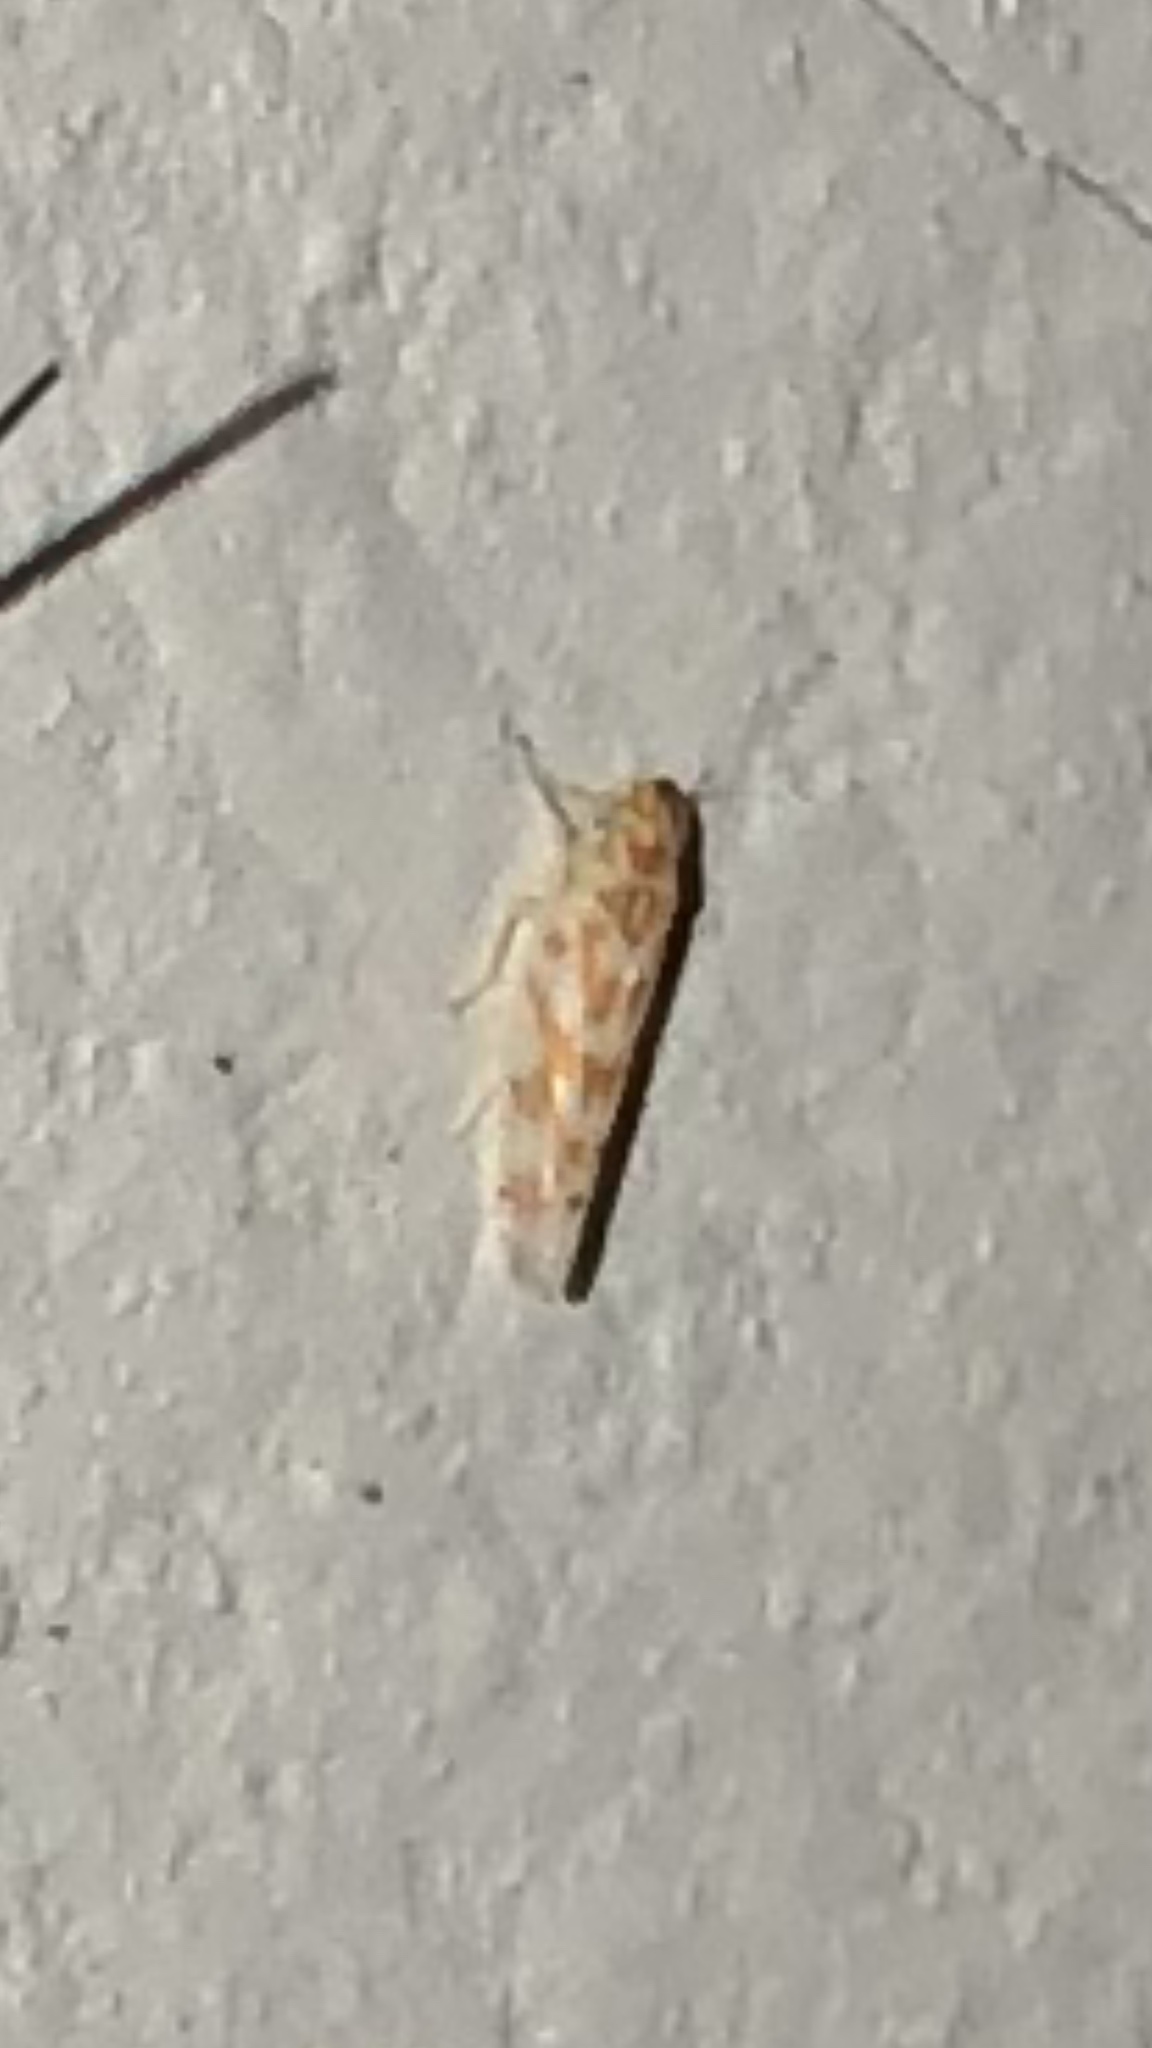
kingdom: Animalia
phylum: Arthropoda
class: Insecta
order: Hemiptera
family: Cicadellidae
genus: Eratoneura
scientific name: Eratoneura
